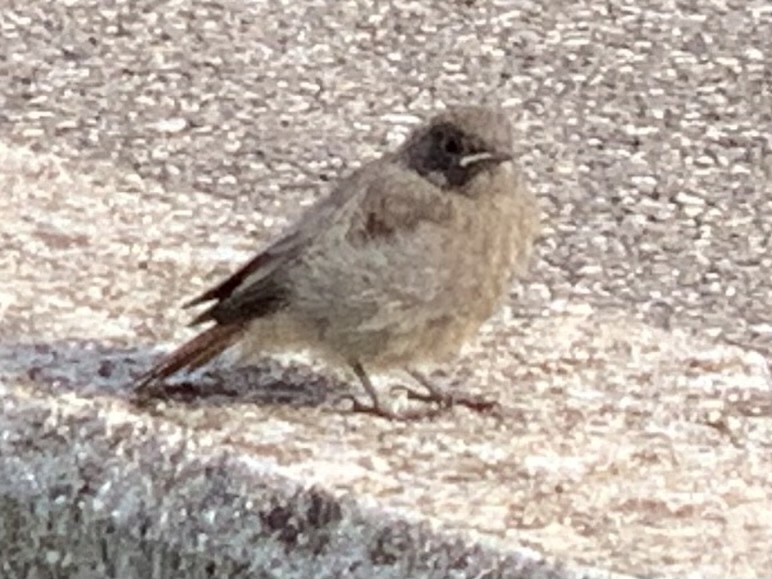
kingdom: Animalia
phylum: Chordata
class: Aves
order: Passeriformes
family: Muscicapidae
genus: Phoenicurus
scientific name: Phoenicurus ochruros
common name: Black redstart
